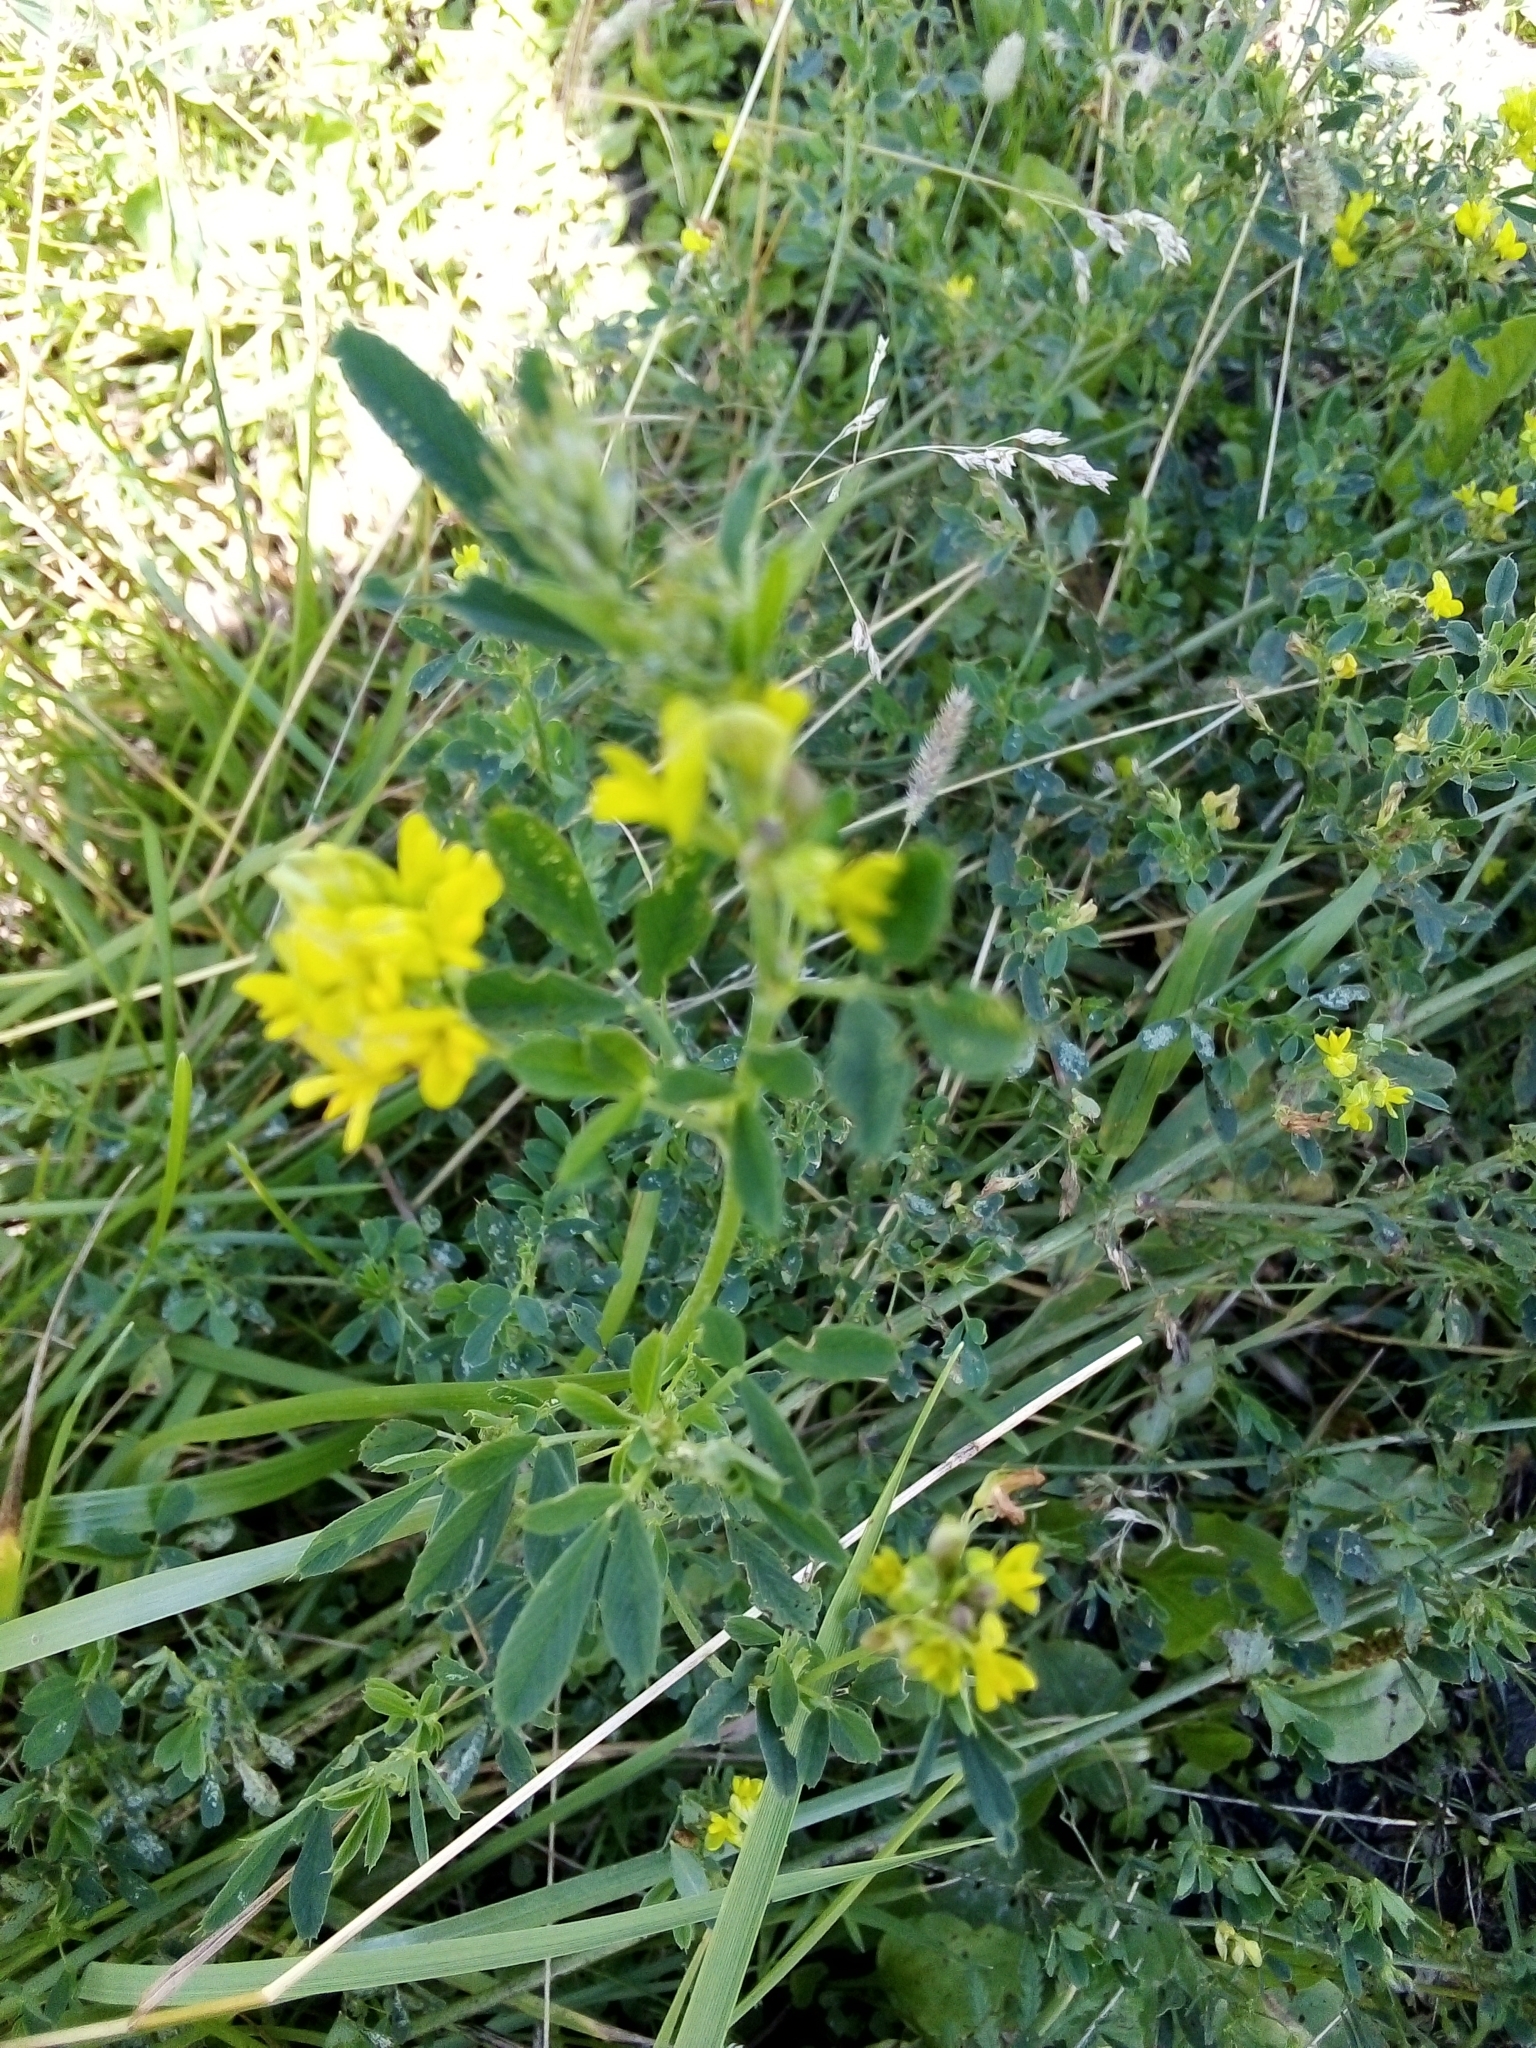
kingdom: Plantae
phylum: Tracheophyta
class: Magnoliopsida
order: Fabales
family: Fabaceae
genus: Medicago
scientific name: Medicago varia
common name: Sand lucerne
